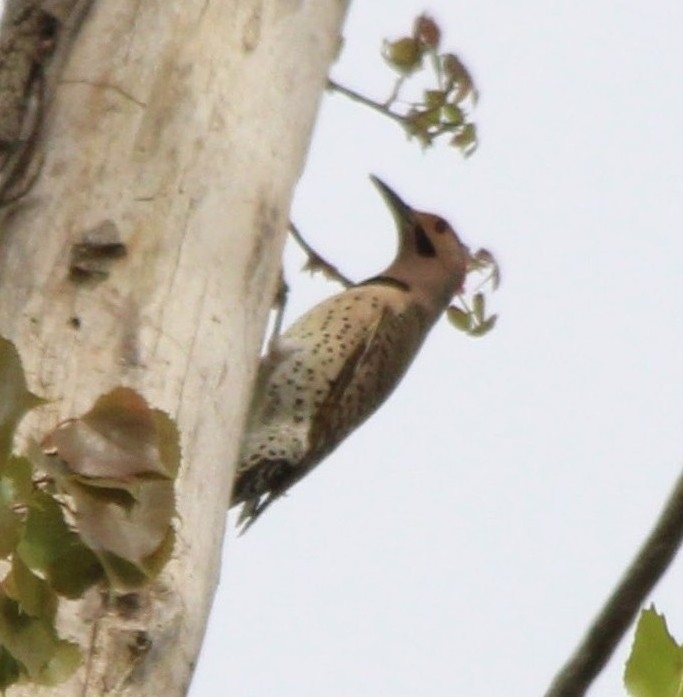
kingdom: Animalia
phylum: Chordata
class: Aves
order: Piciformes
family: Picidae
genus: Colaptes
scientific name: Colaptes auratus
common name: Northern flicker
